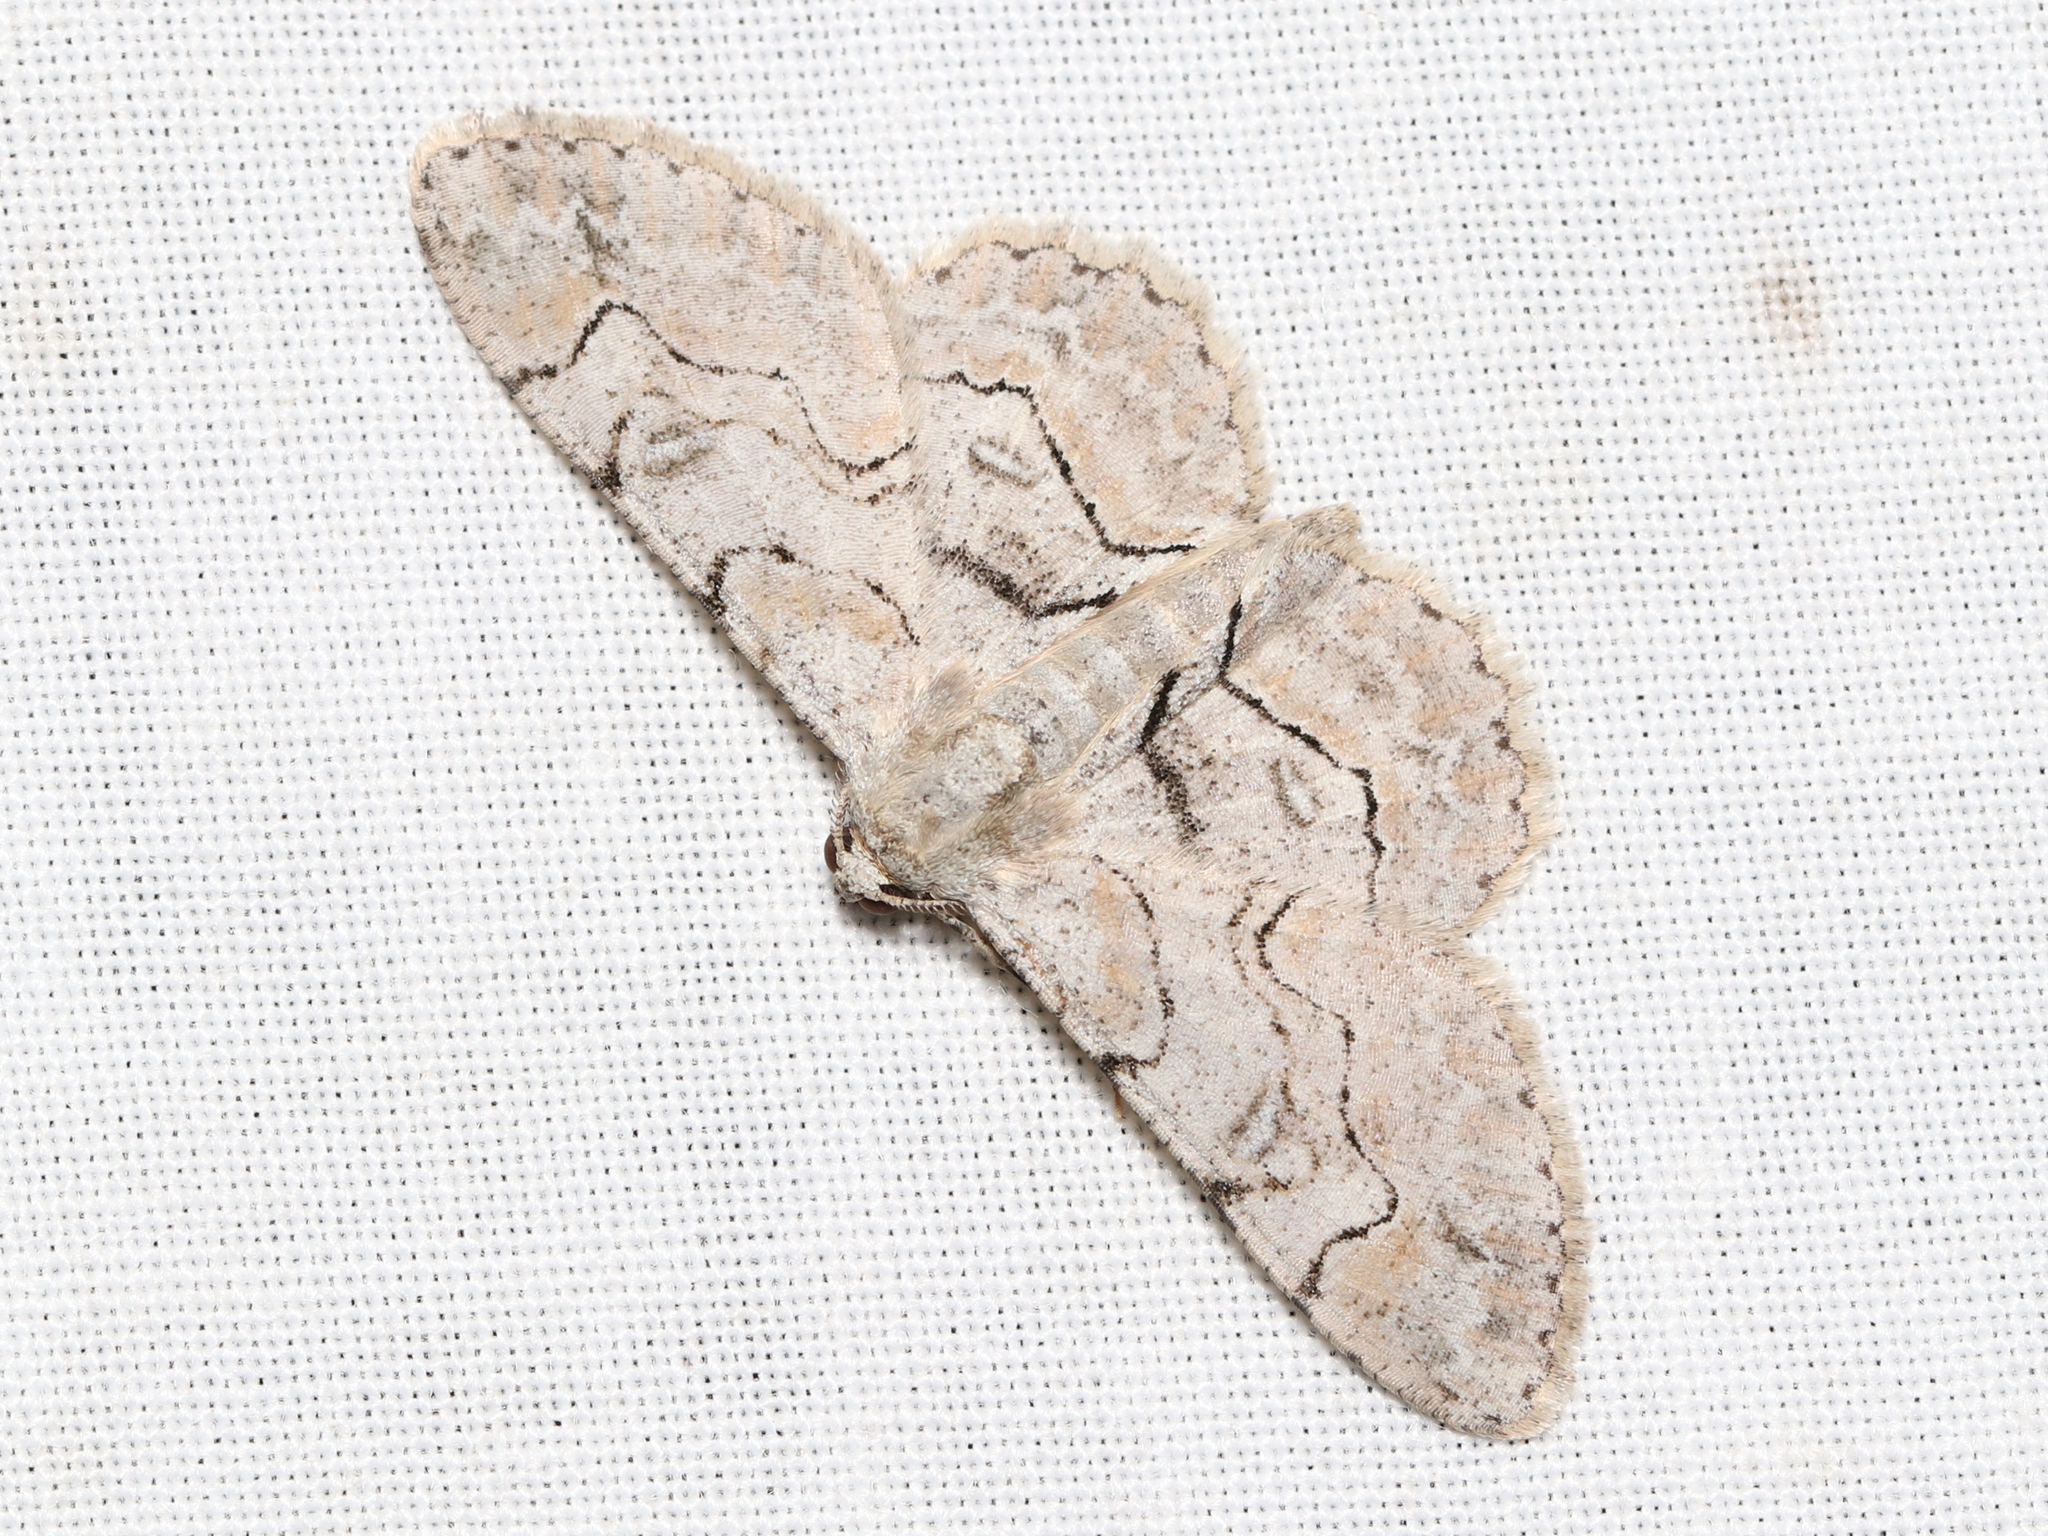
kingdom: Animalia
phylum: Arthropoda
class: Insecta
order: Lepidoptera
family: Geometridae
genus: Iridopsis
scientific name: Iridopsis larvaria
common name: Bent-line gray
